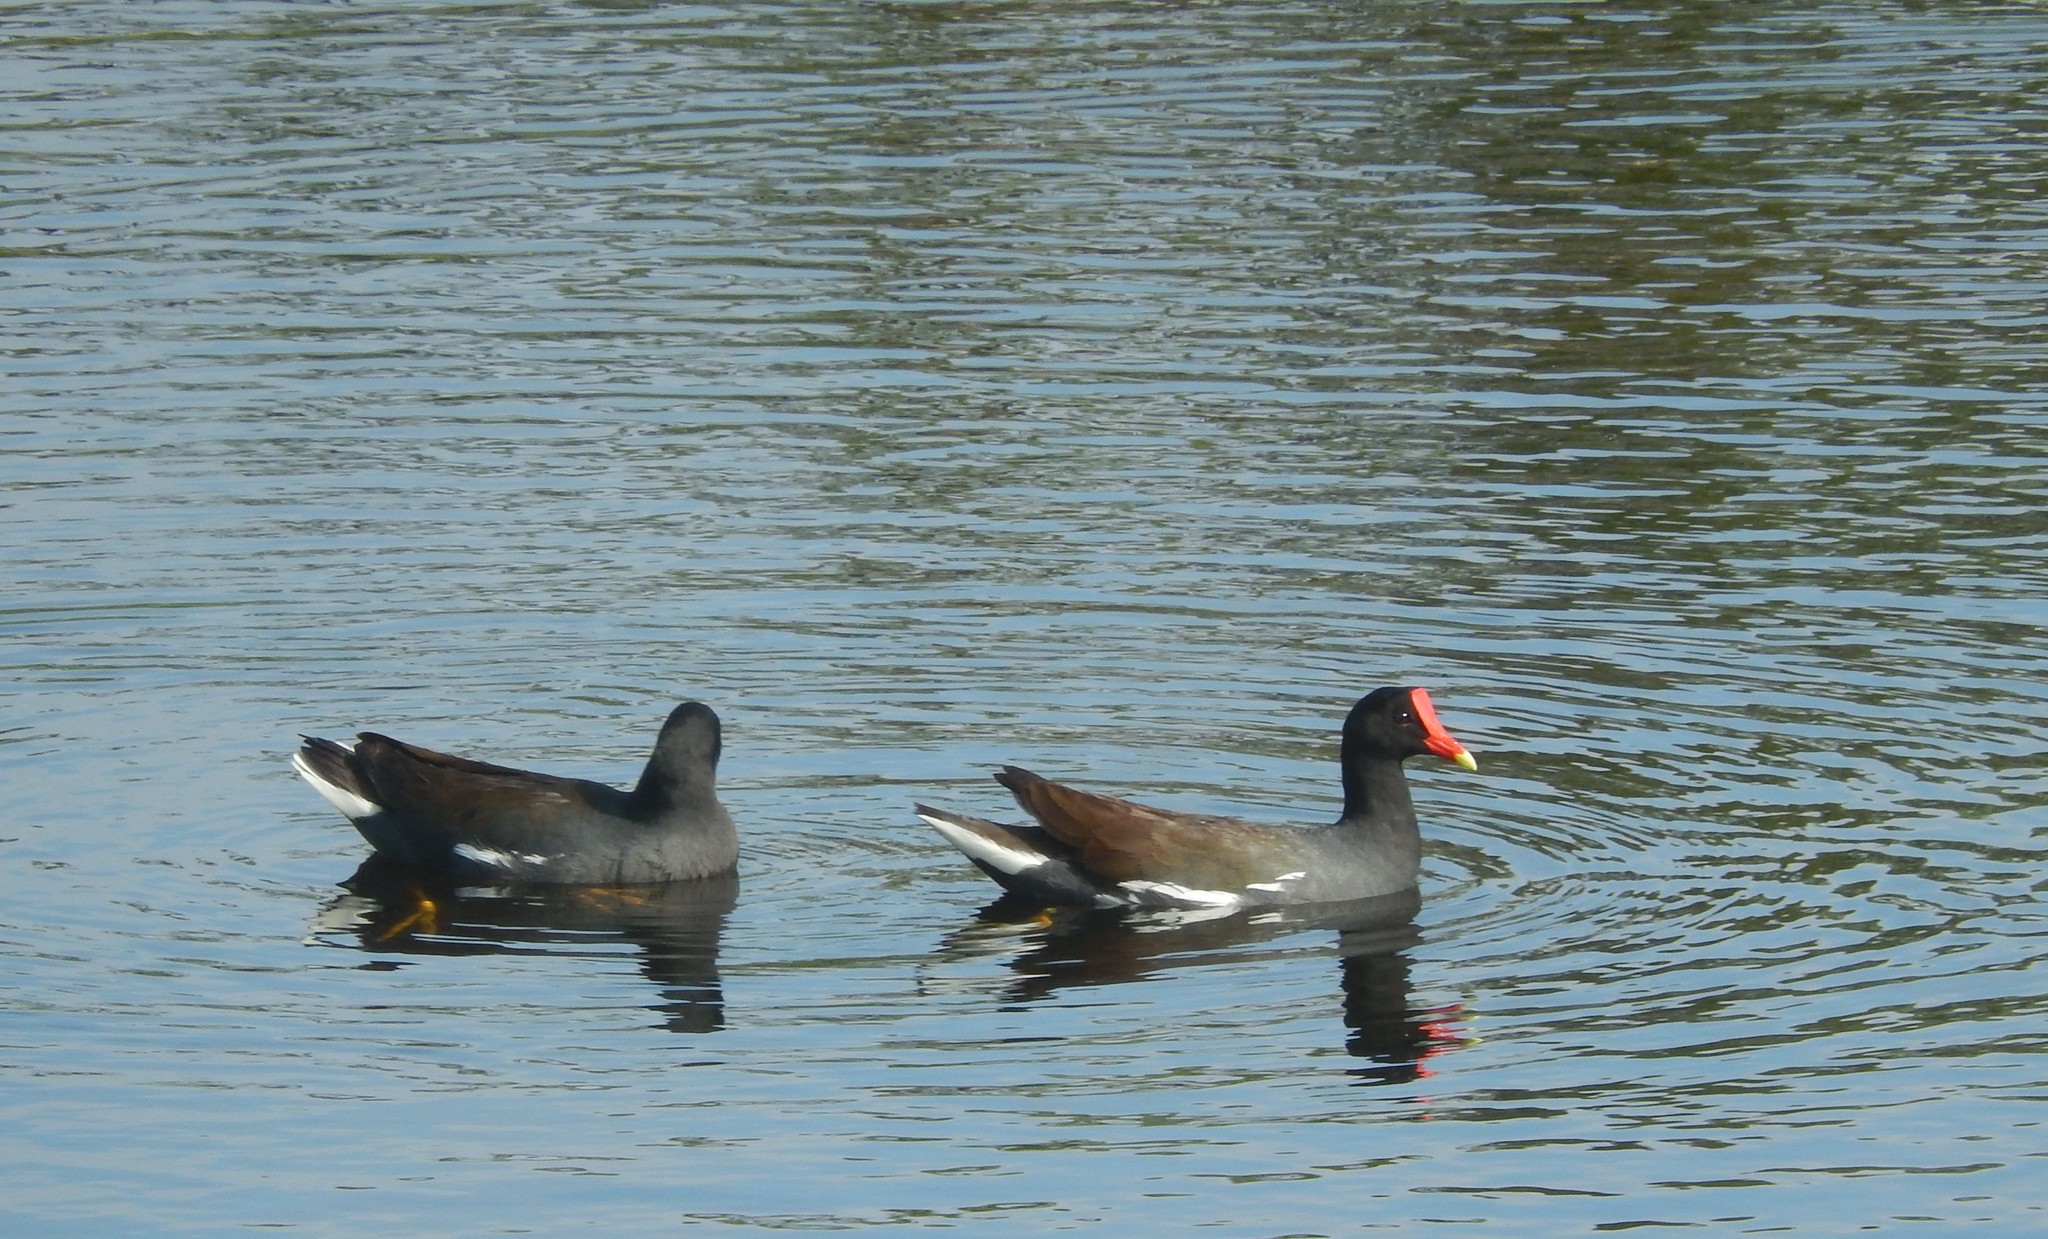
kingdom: Animalia
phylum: Chordata
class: Aves
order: Gruiformes
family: Rallidae
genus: Gallinula
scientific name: Gallinula chloropus
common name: Common moorhen
